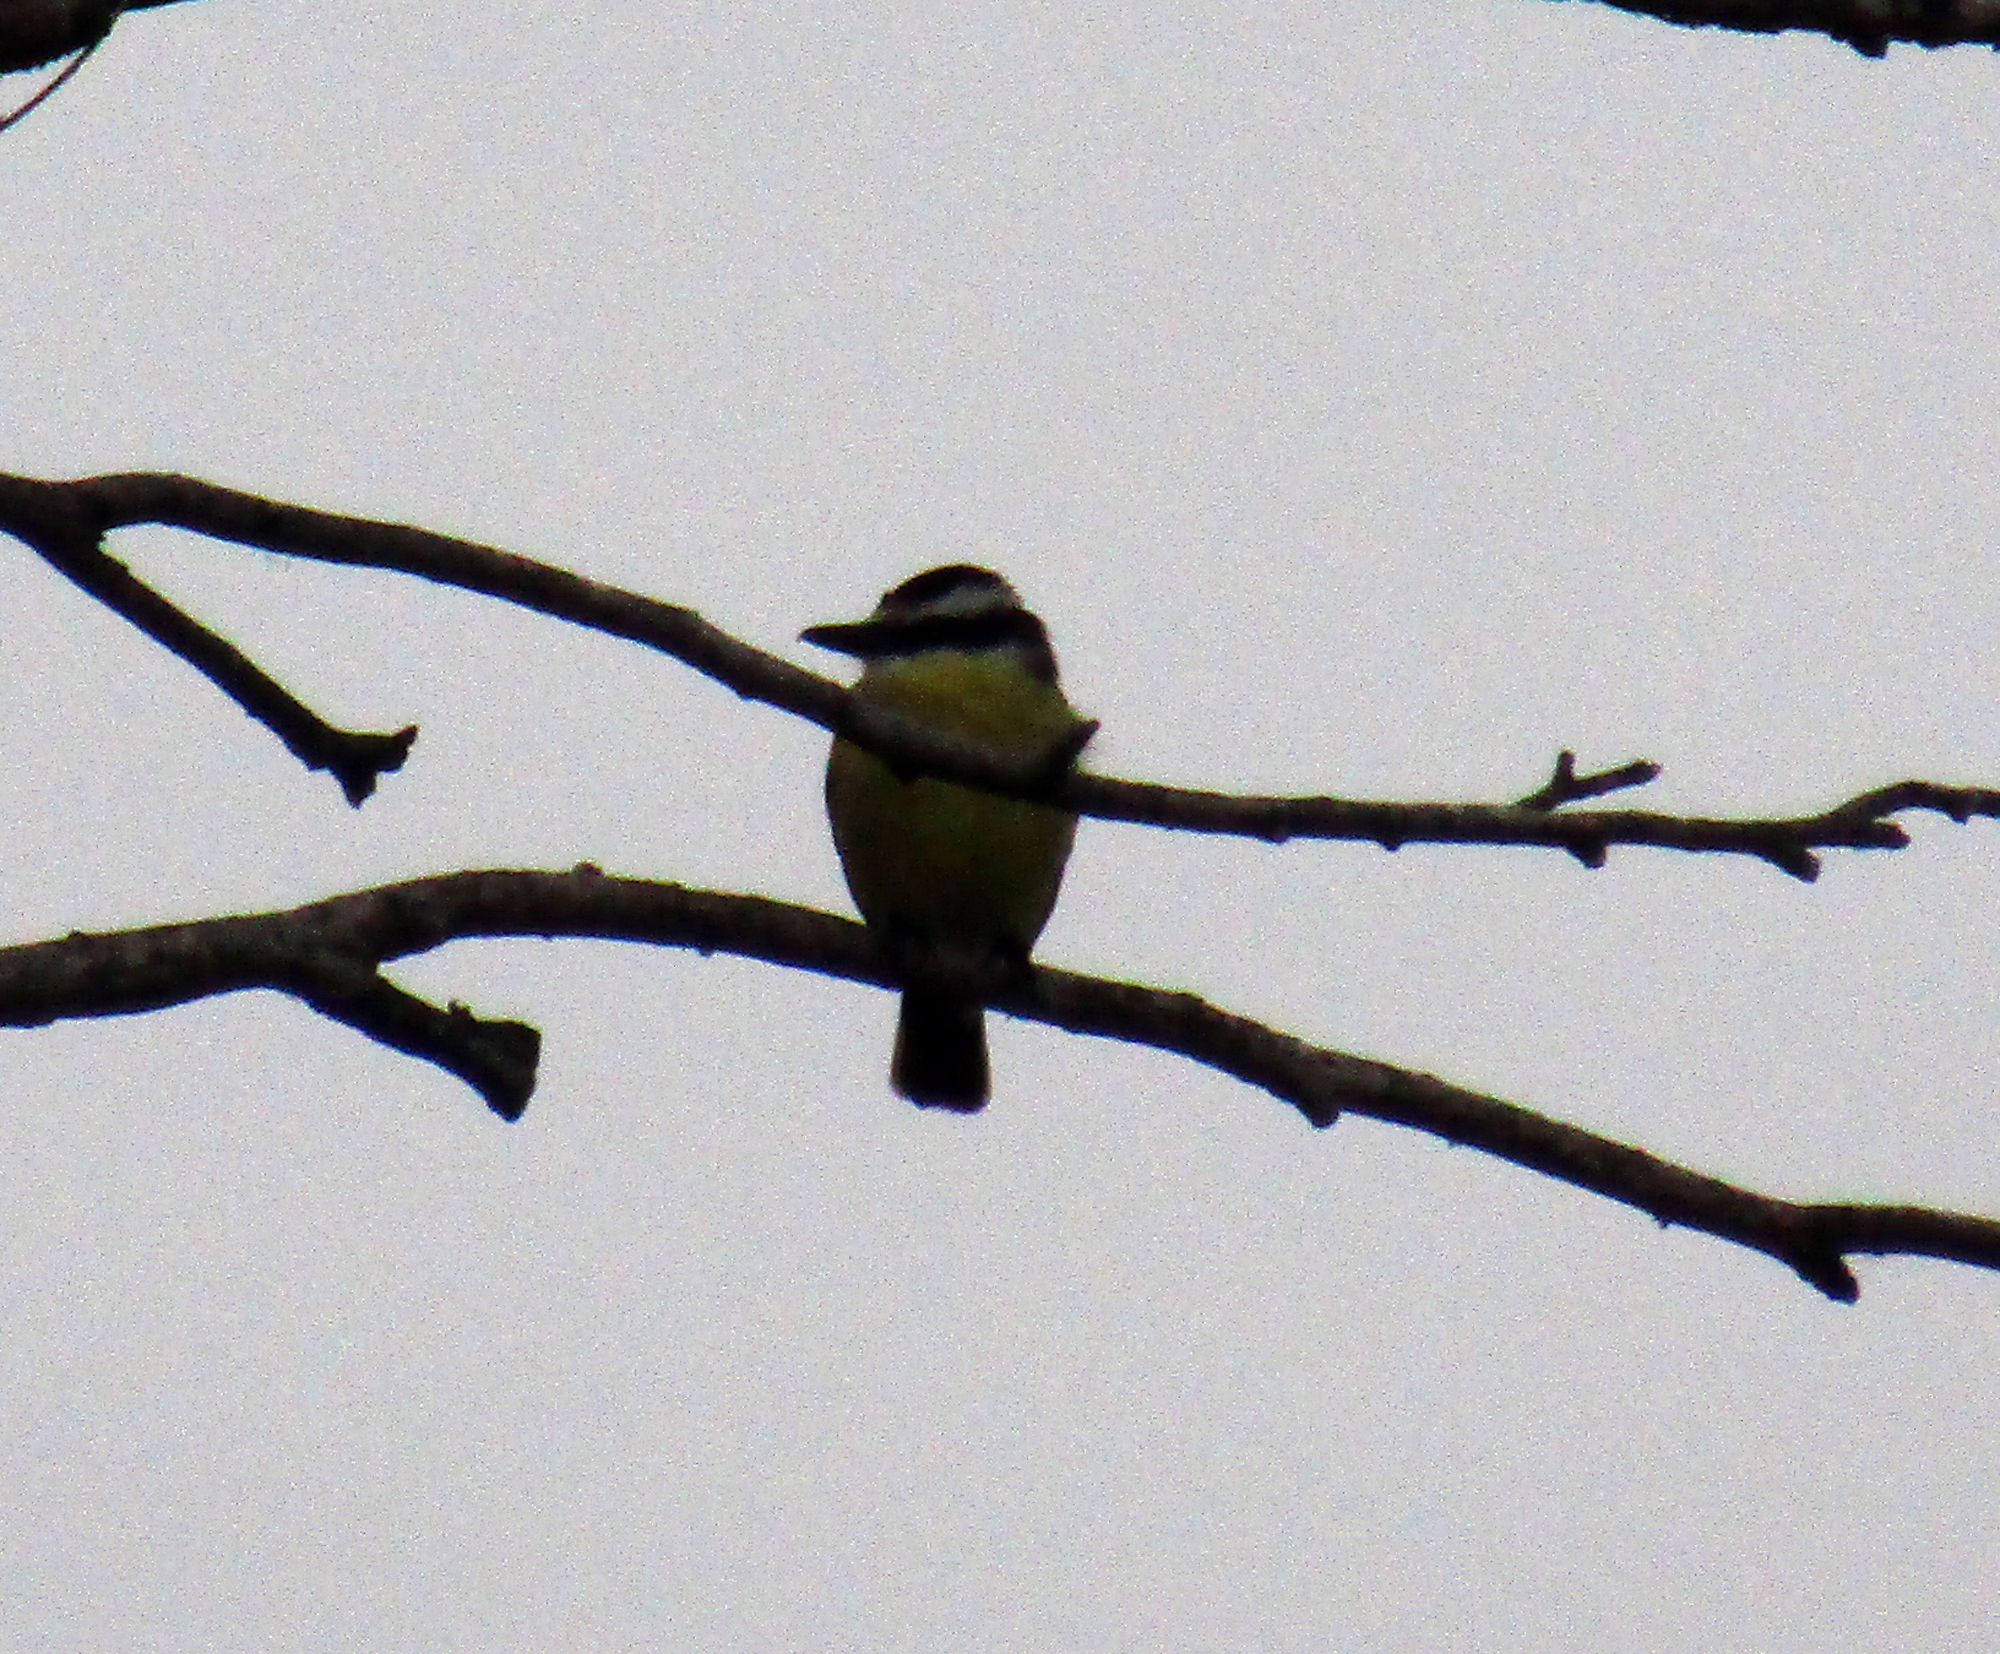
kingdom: Animalia
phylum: Chordata
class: Aves
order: Passeriformes
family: Tyrannidae
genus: Pitangus
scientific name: Pitangus sulphuratus
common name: Great kiskadee
